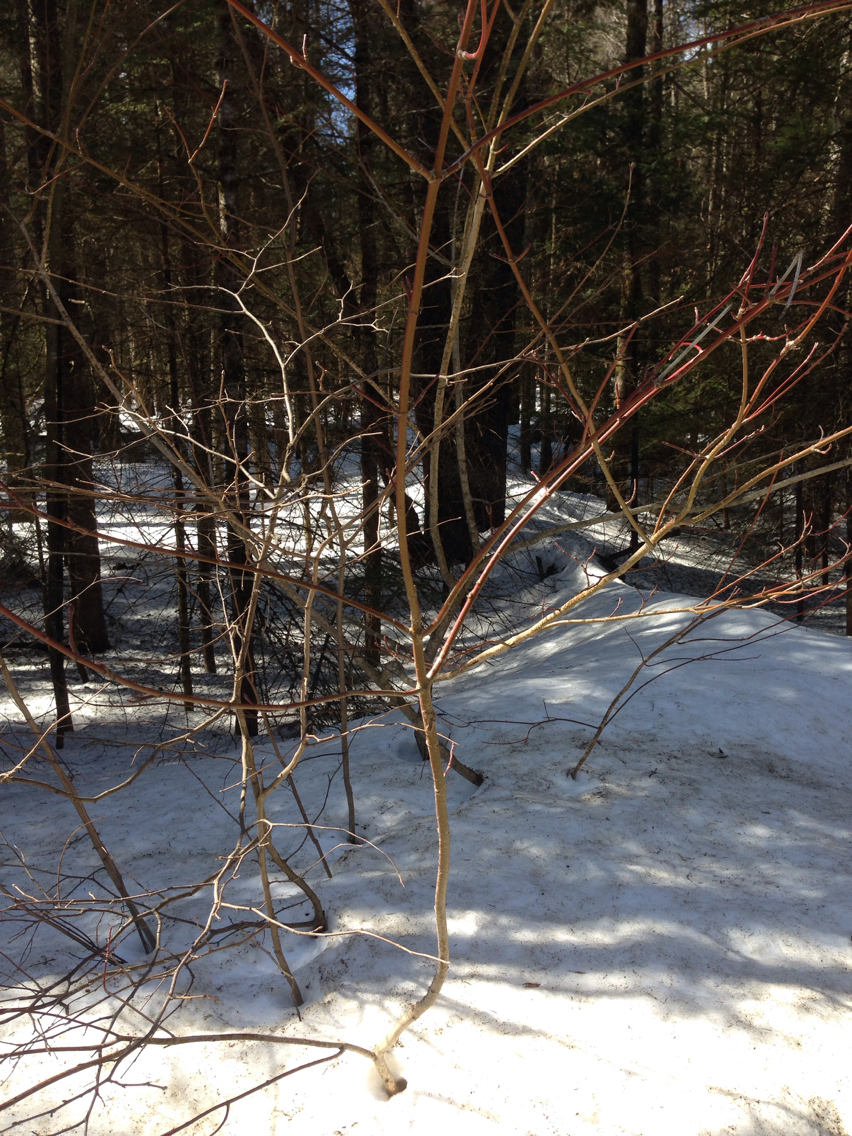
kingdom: Plantae
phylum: Tracheophyta
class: Magnoliopsida
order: Sapindales
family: Sapindaceae
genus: Acer
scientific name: Acer spicatum
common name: Mountain maple
